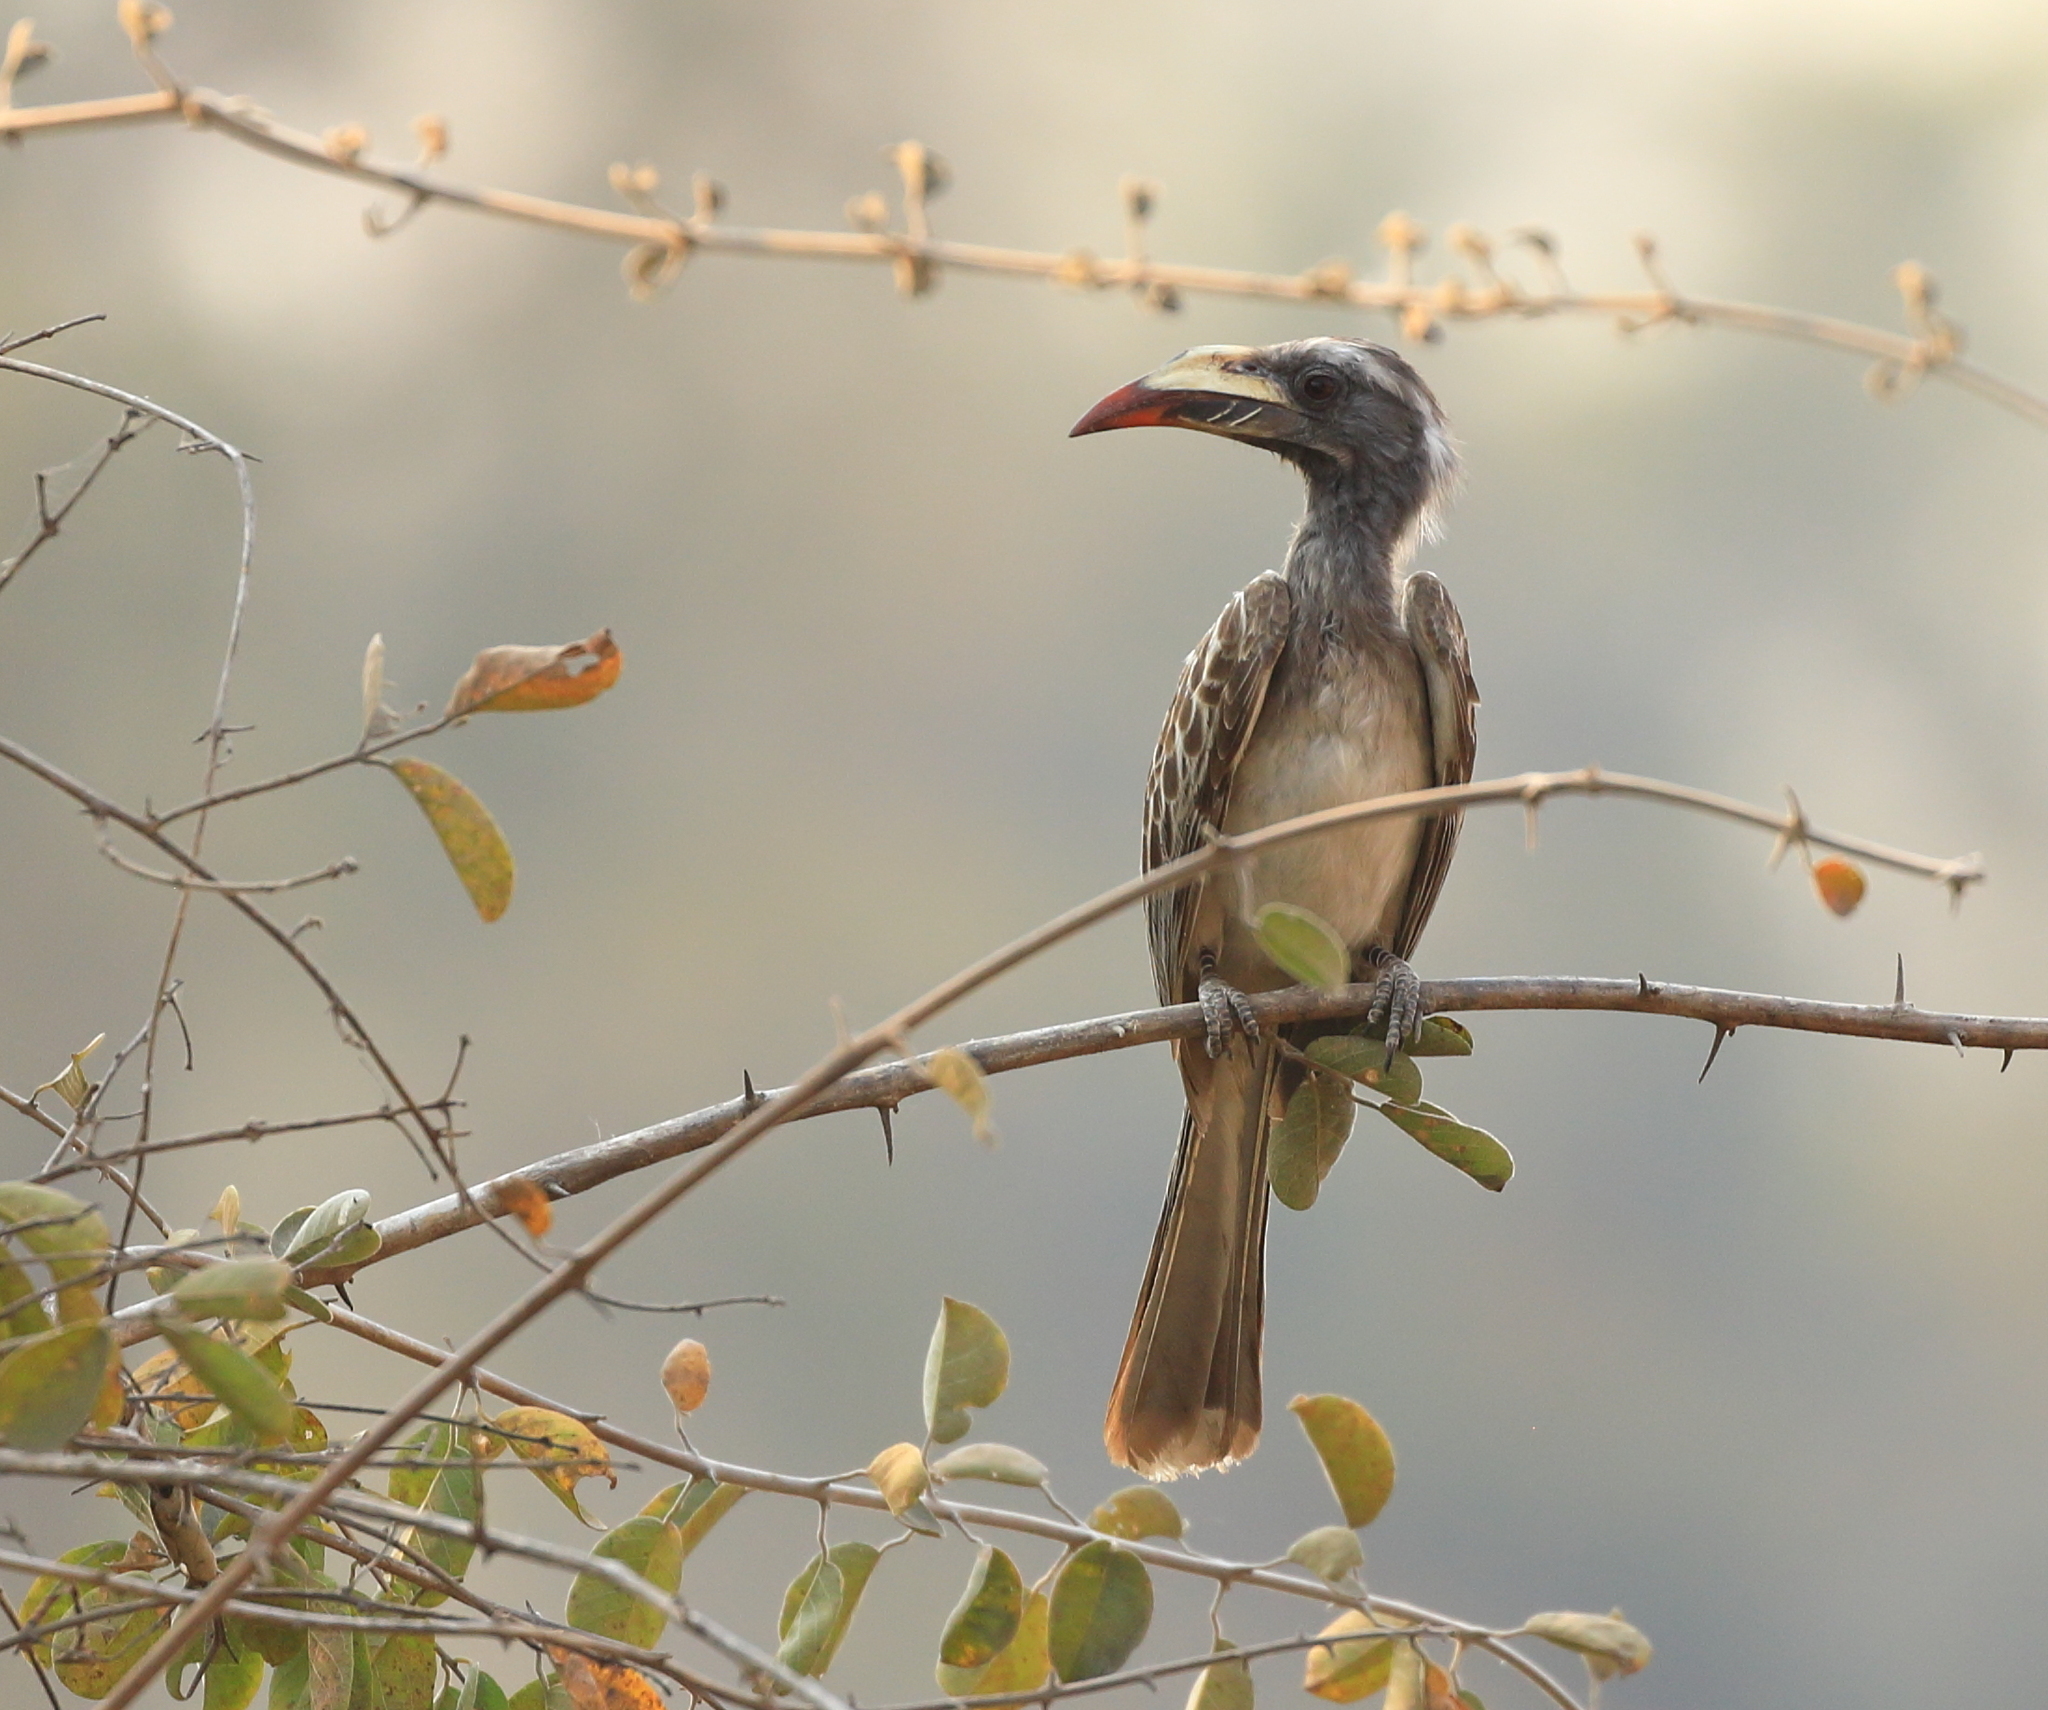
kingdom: Animalia
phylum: Chordata
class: Aves
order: Bucerotiformes
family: Bucerotidae
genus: Lophoceros
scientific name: Lophoceros nasutus
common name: African grey hornbill
